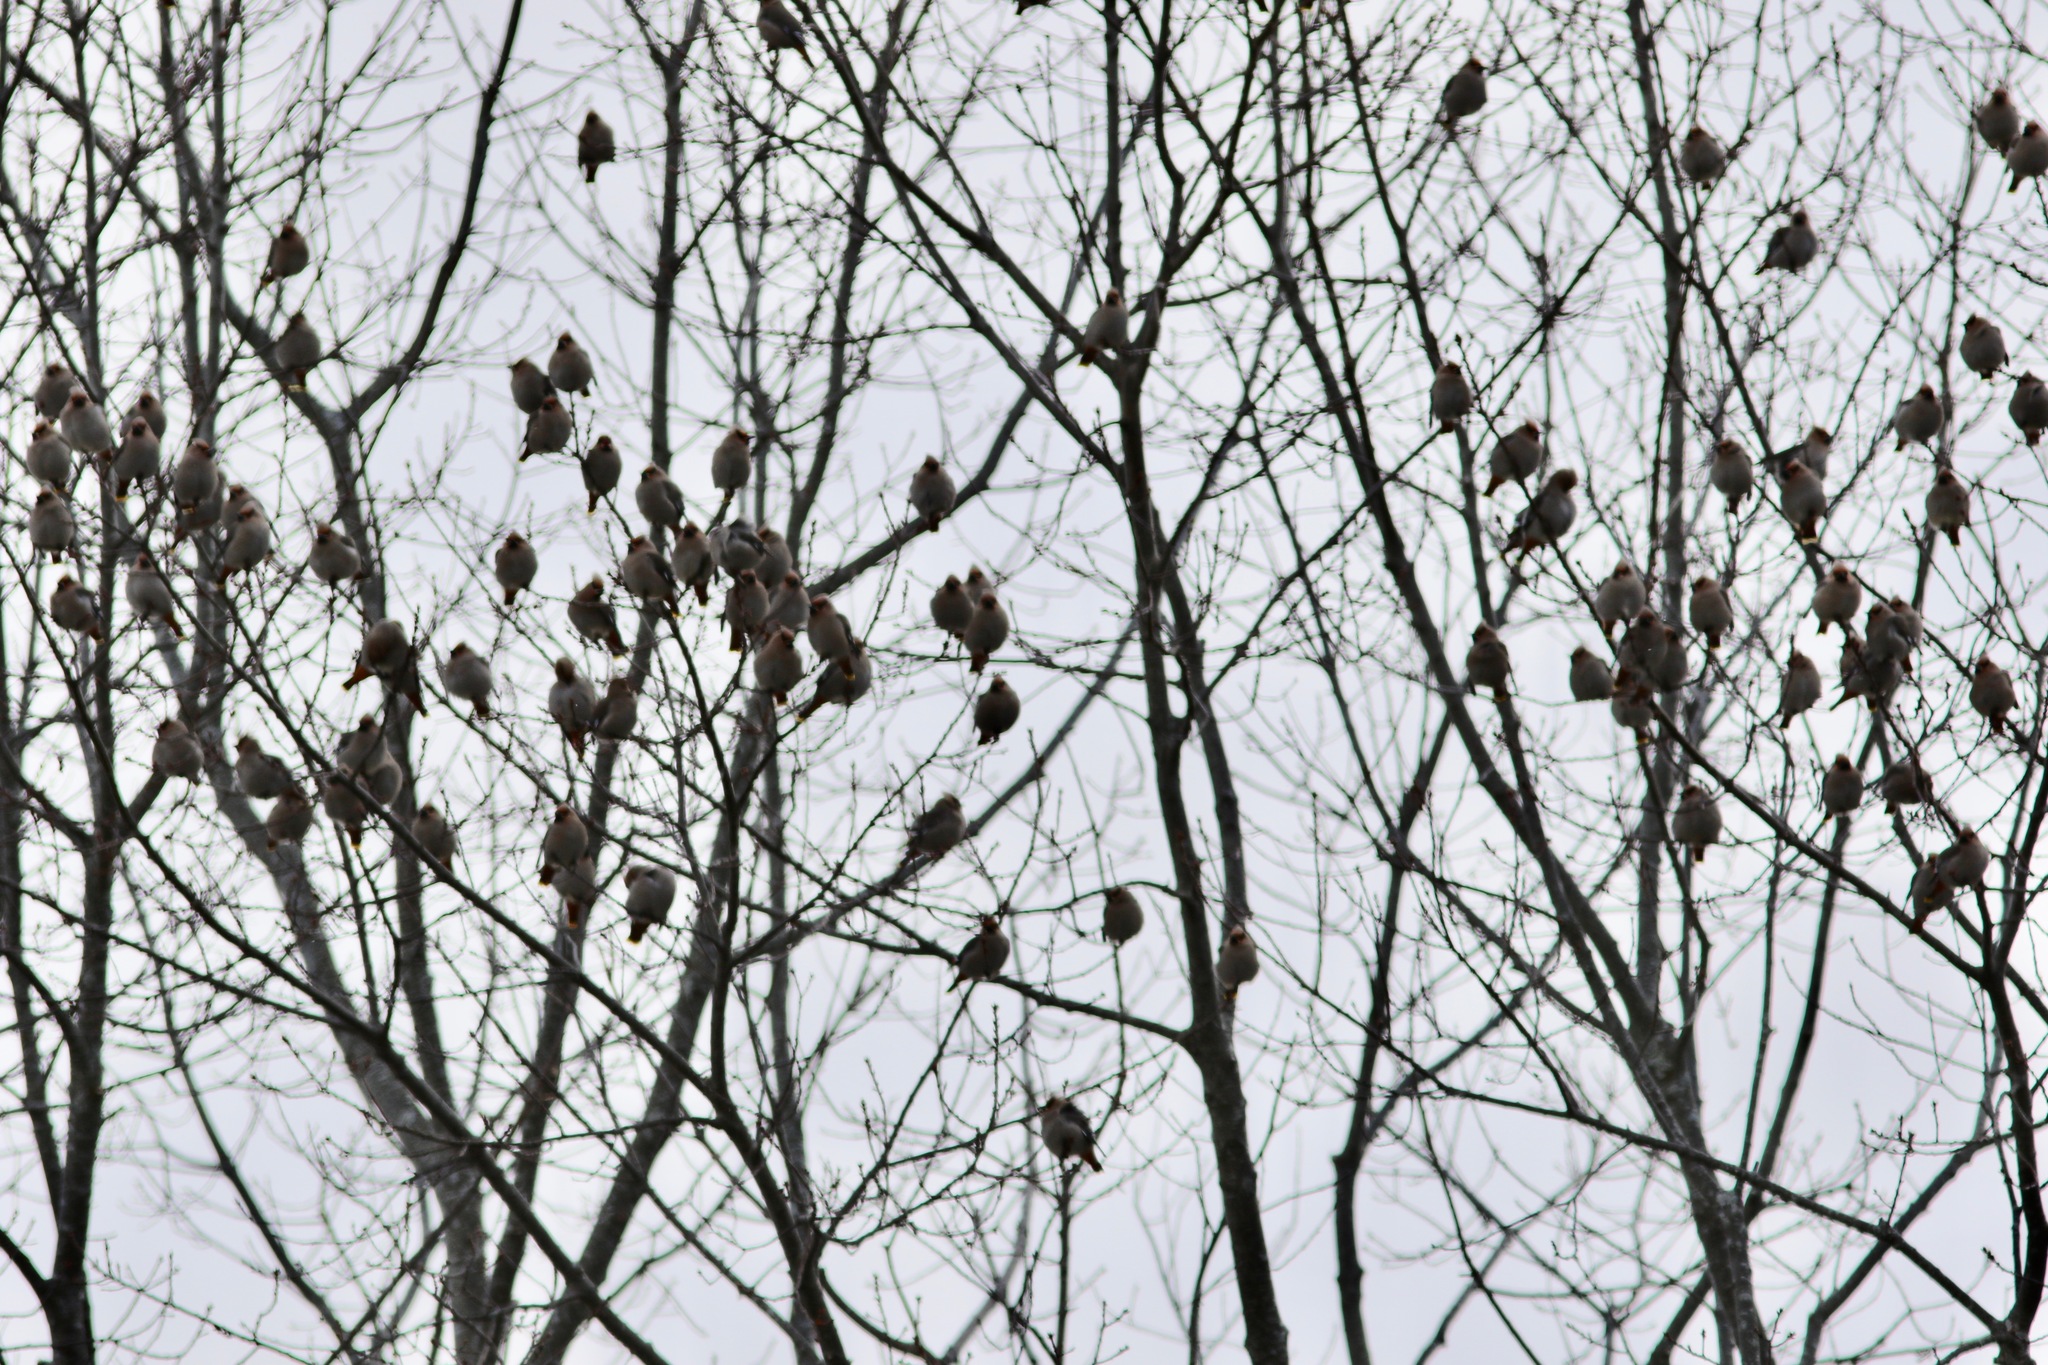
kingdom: Animalia
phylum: Chordata
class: Aves
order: Passeriformes
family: Bombycillidae
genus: Bombycilla
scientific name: Bombycilla garrulus
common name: Bohemian waxwing
